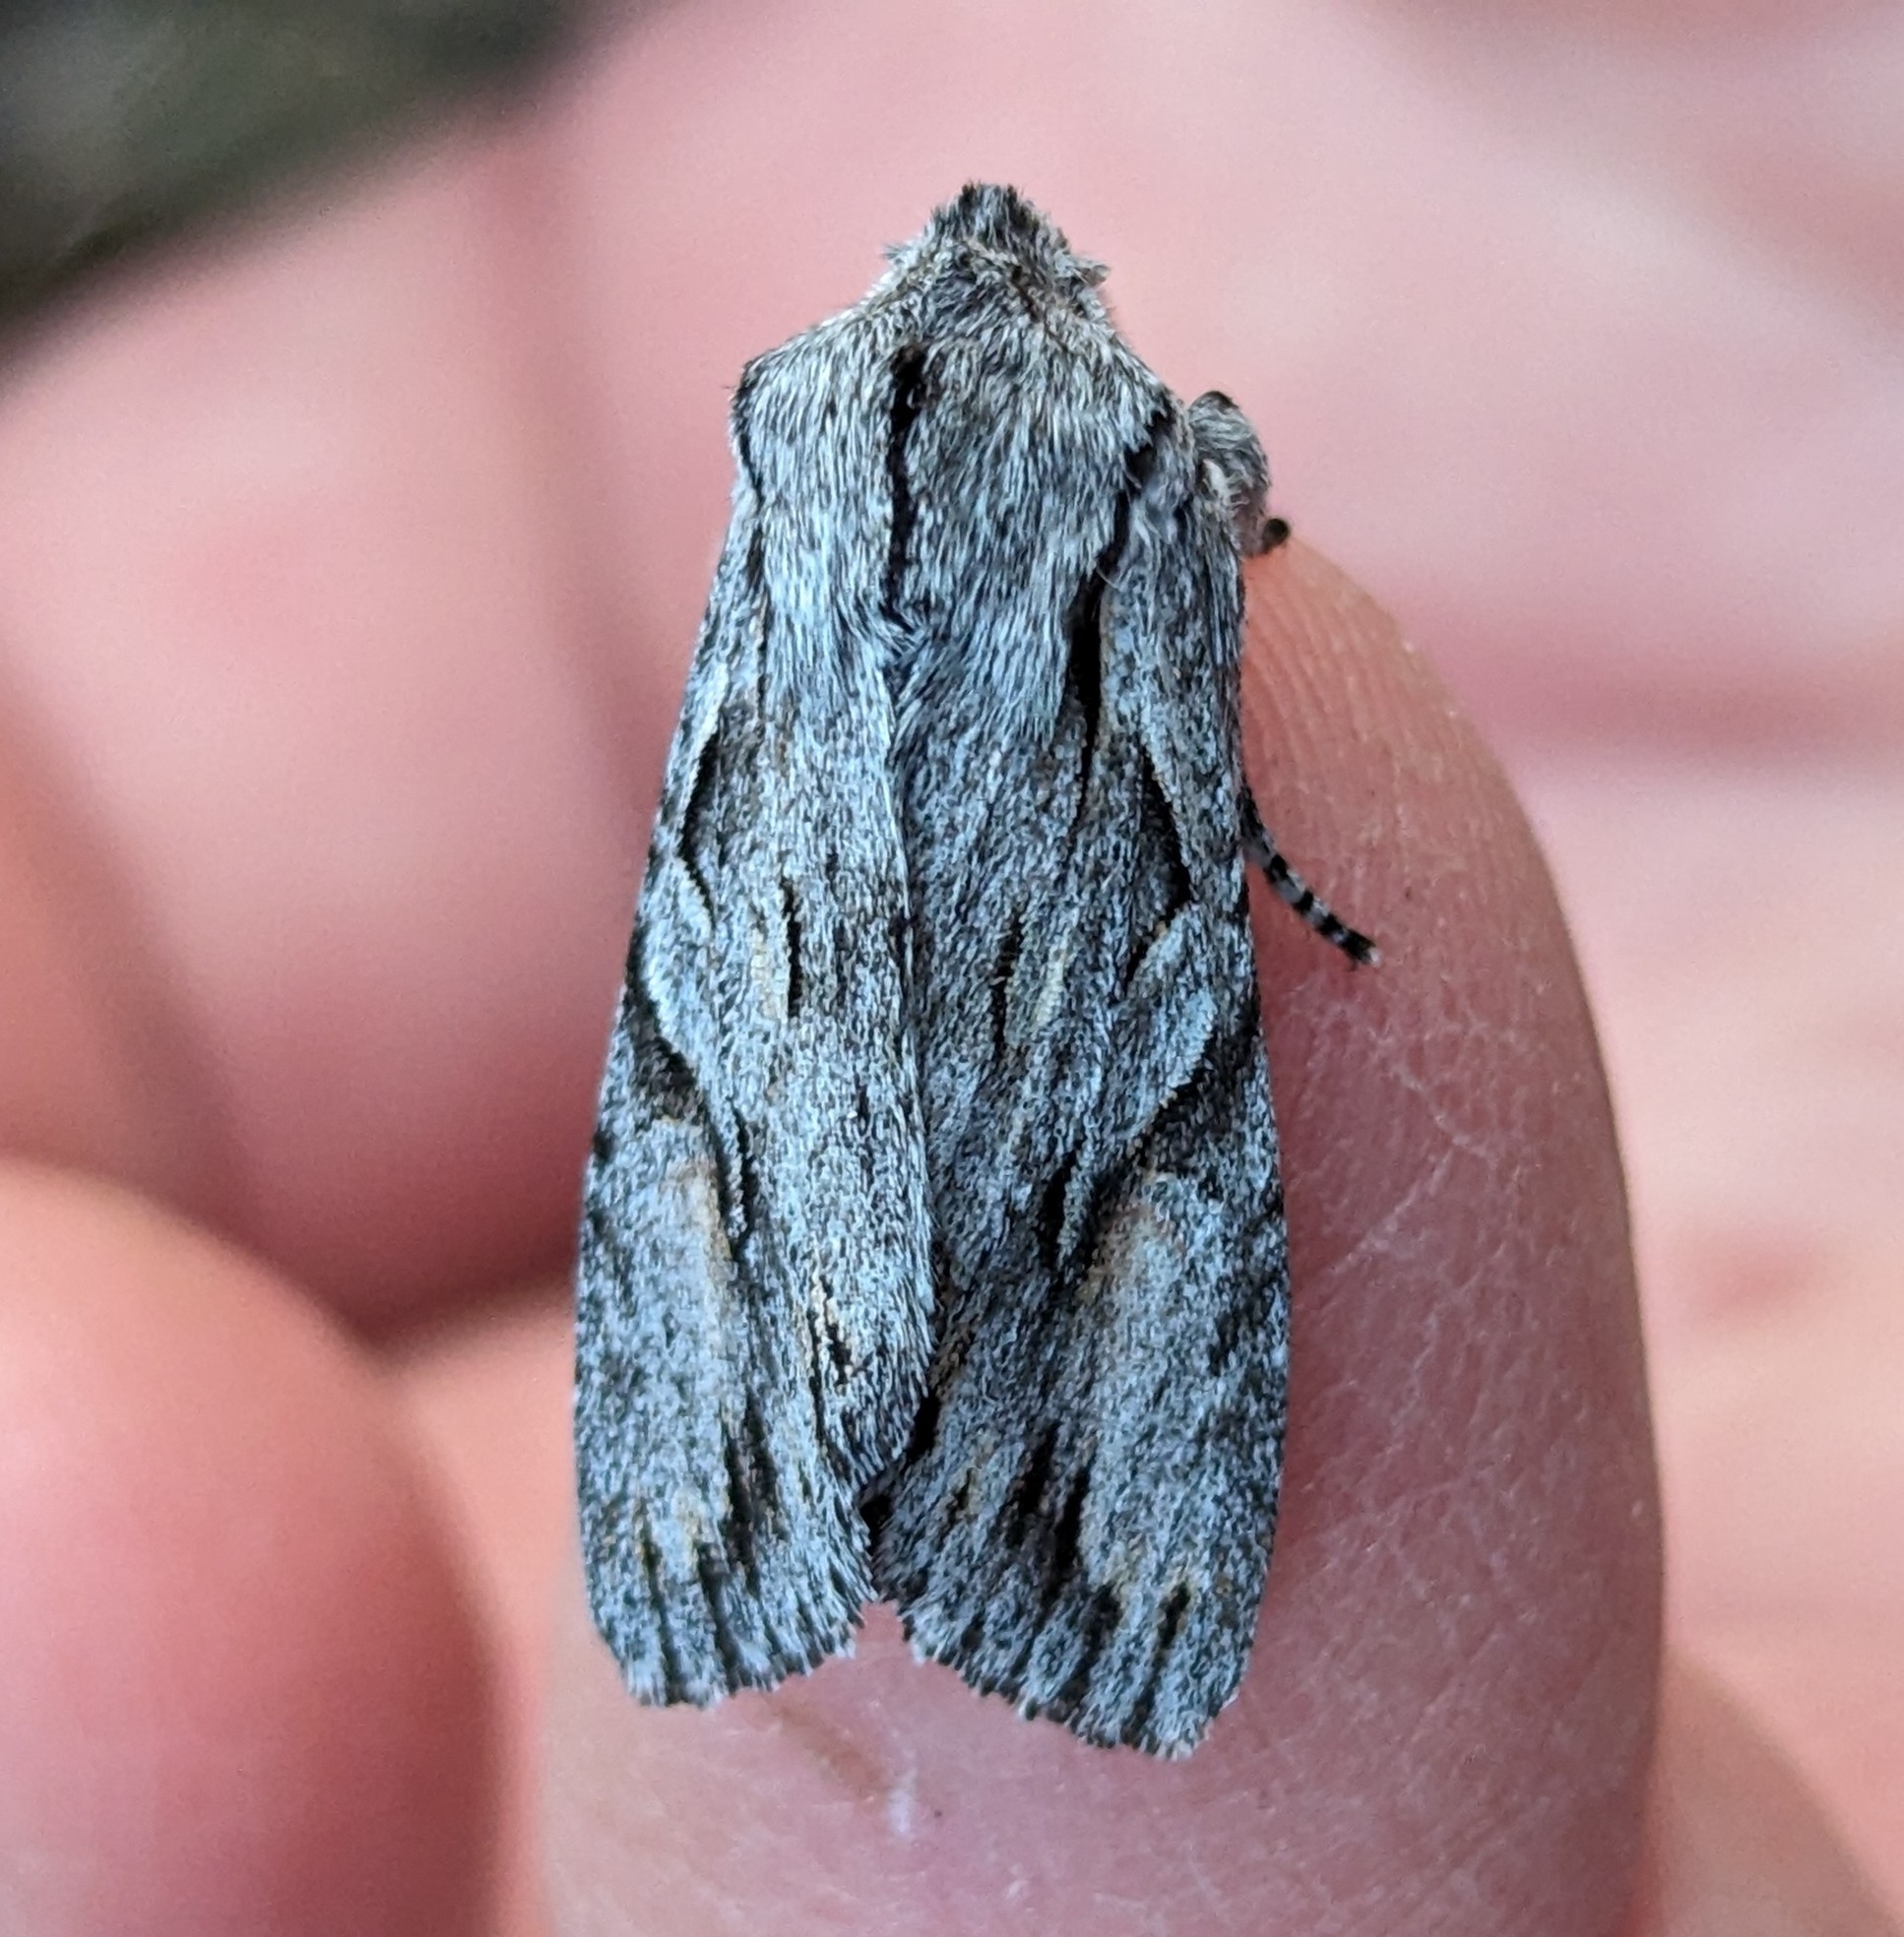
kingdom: Animalia
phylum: Arthropoda
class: Insecta
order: Lepidoptera
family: Noctuidae
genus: Egira
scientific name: Egira crucialis
